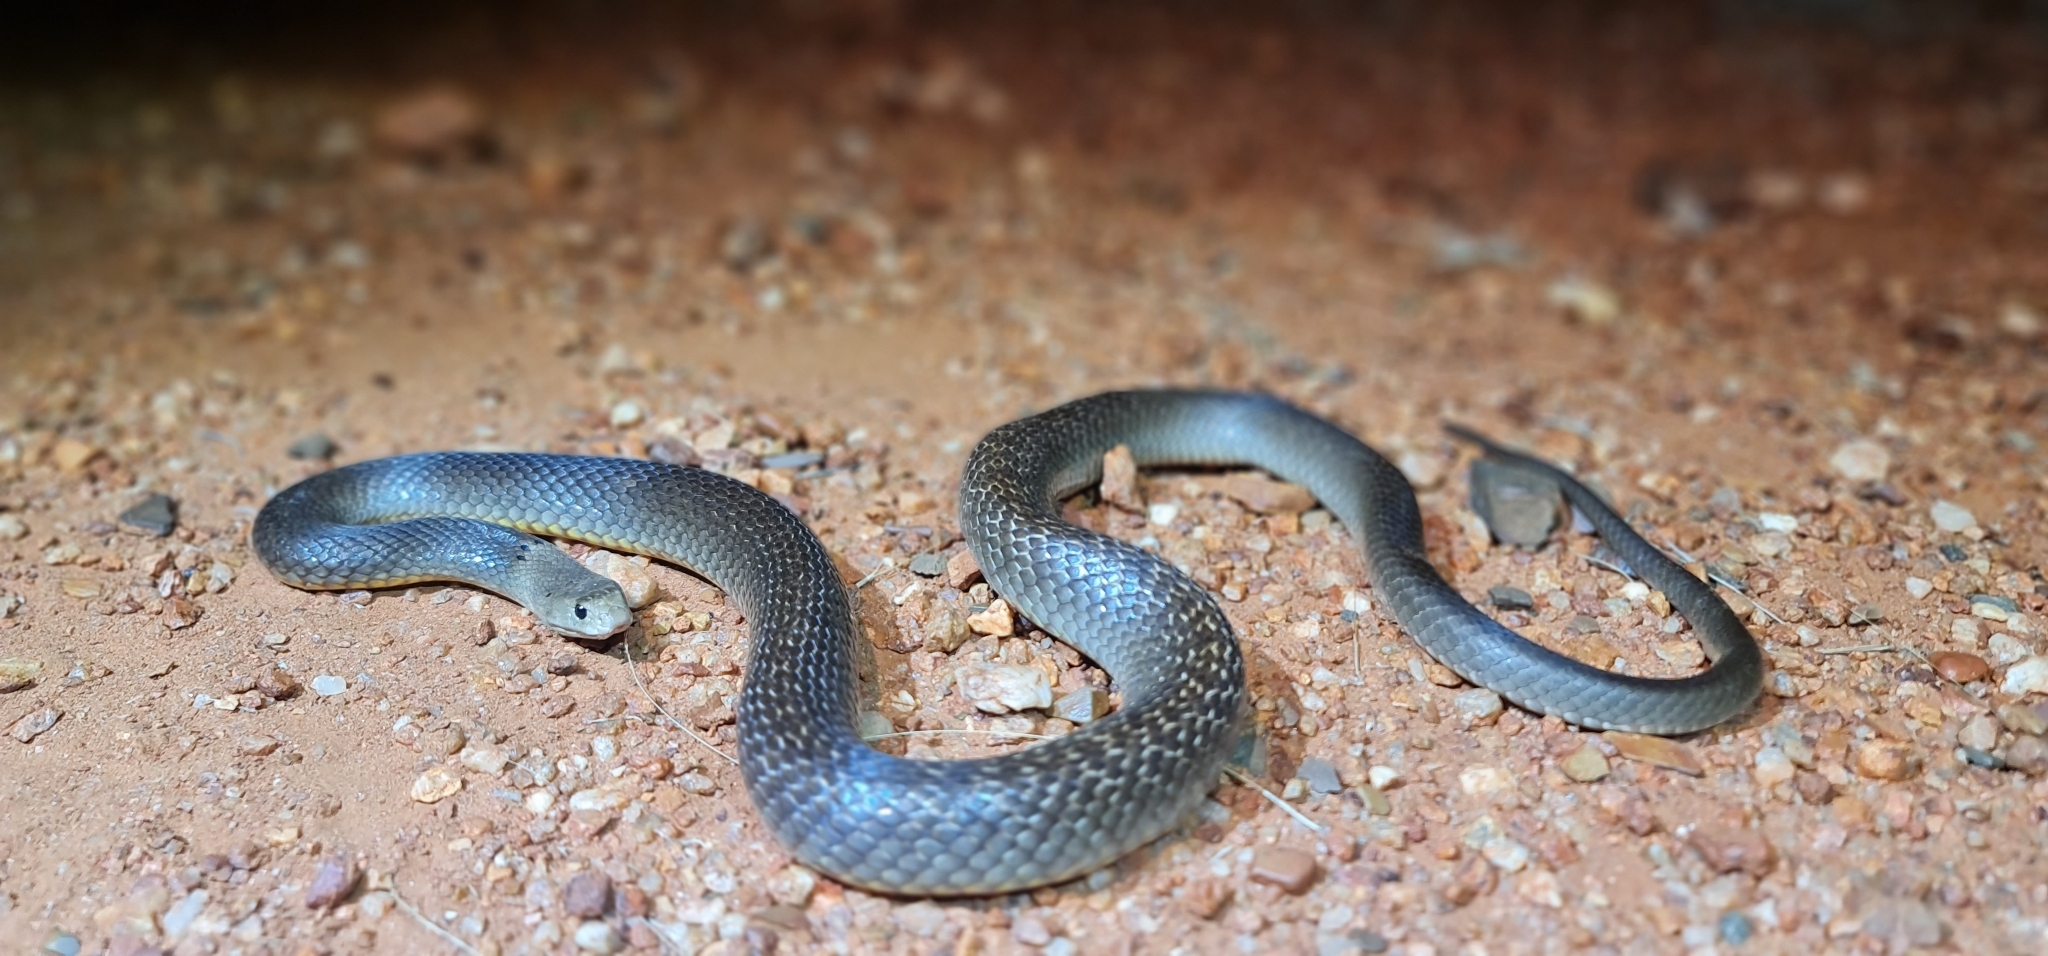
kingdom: Animalia
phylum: Chordata
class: Squamata
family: Elapidae
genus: Pseudonaja
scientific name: Pseudonaja nuchalis
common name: Gwardar
